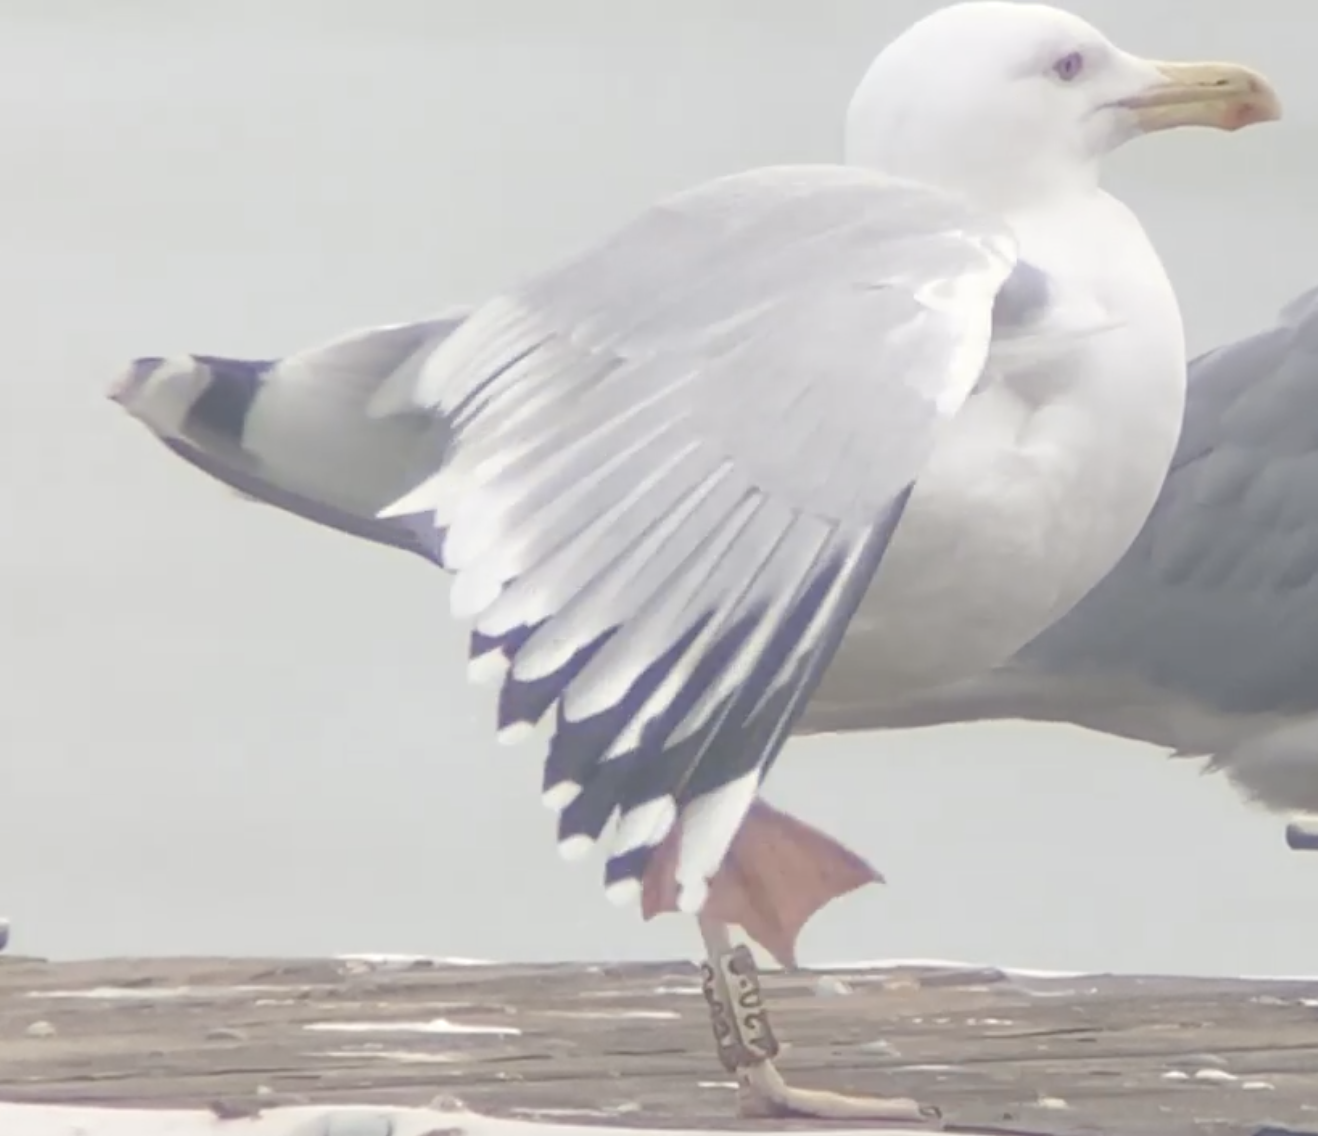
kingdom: Animalia
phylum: Chordata
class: Aves
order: Charadriiformes
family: Laridae
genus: Larus
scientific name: Larus cachinnans
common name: Caspian gull
